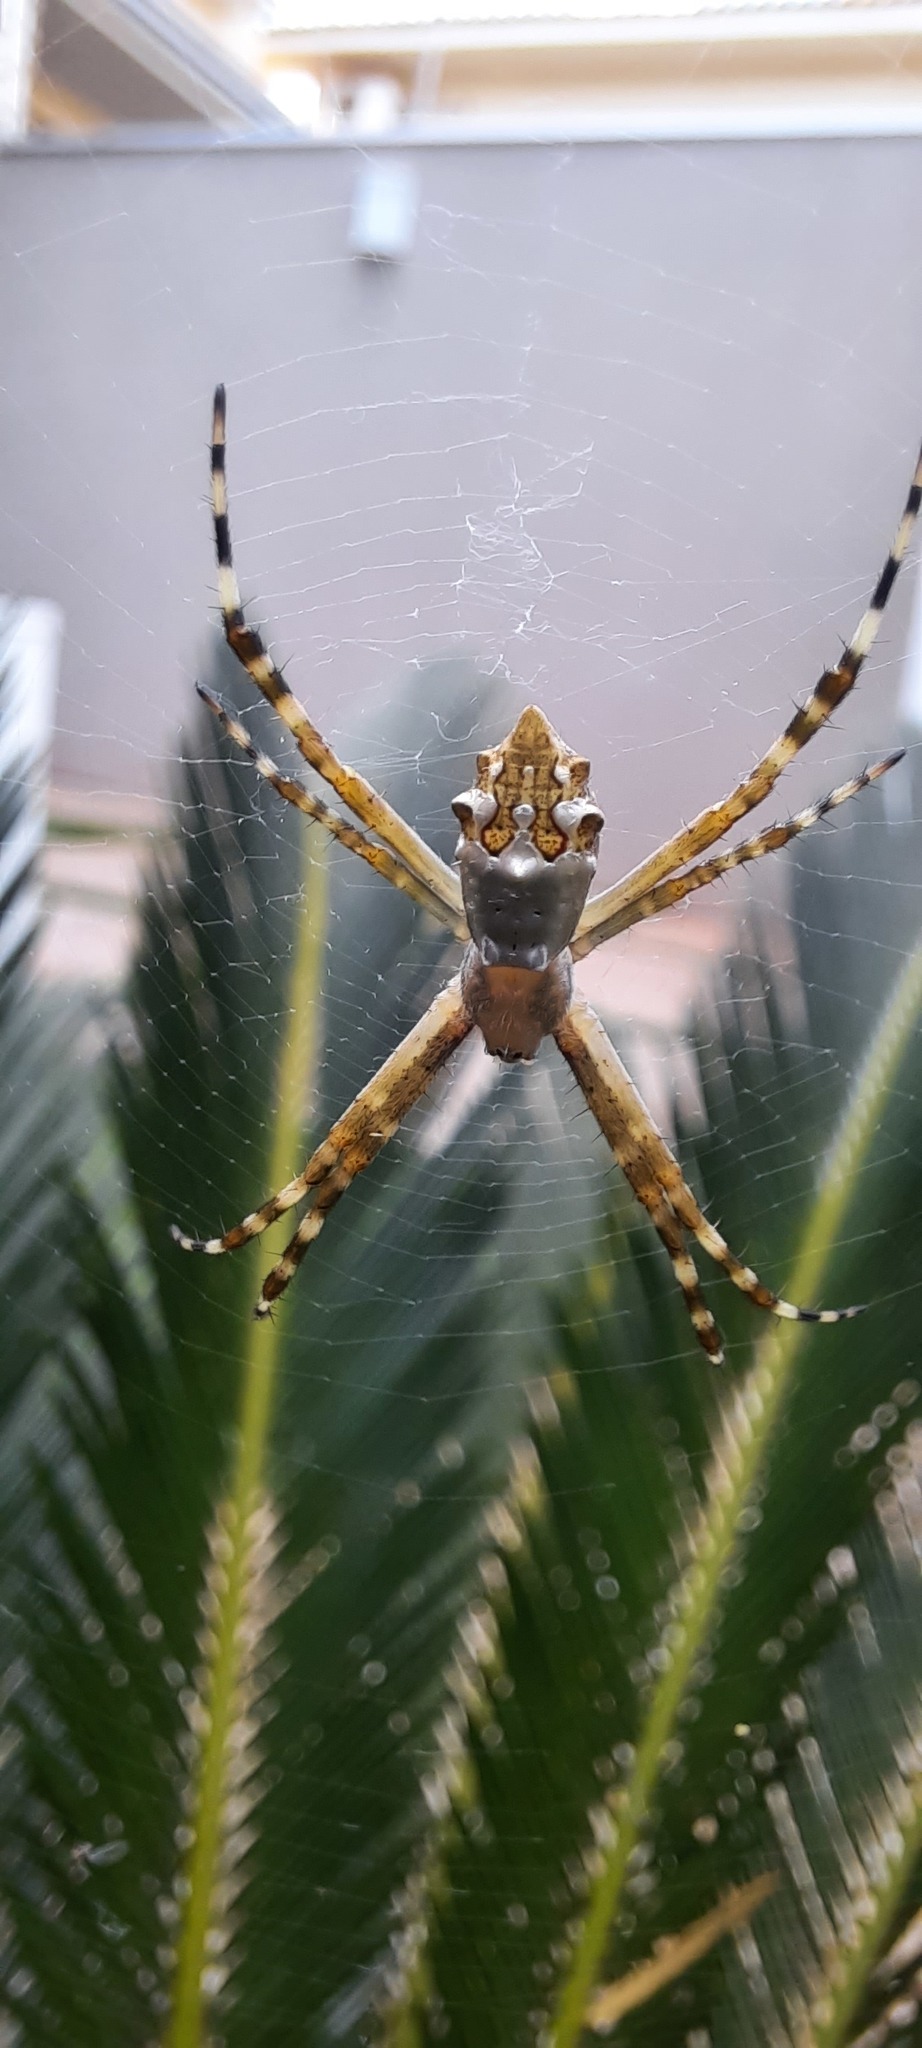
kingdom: Animalia
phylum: Arthropoda
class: Arachnida
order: Araneae
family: Araneidae
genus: Argiope
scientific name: Argiope argentata
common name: Orb weavers
